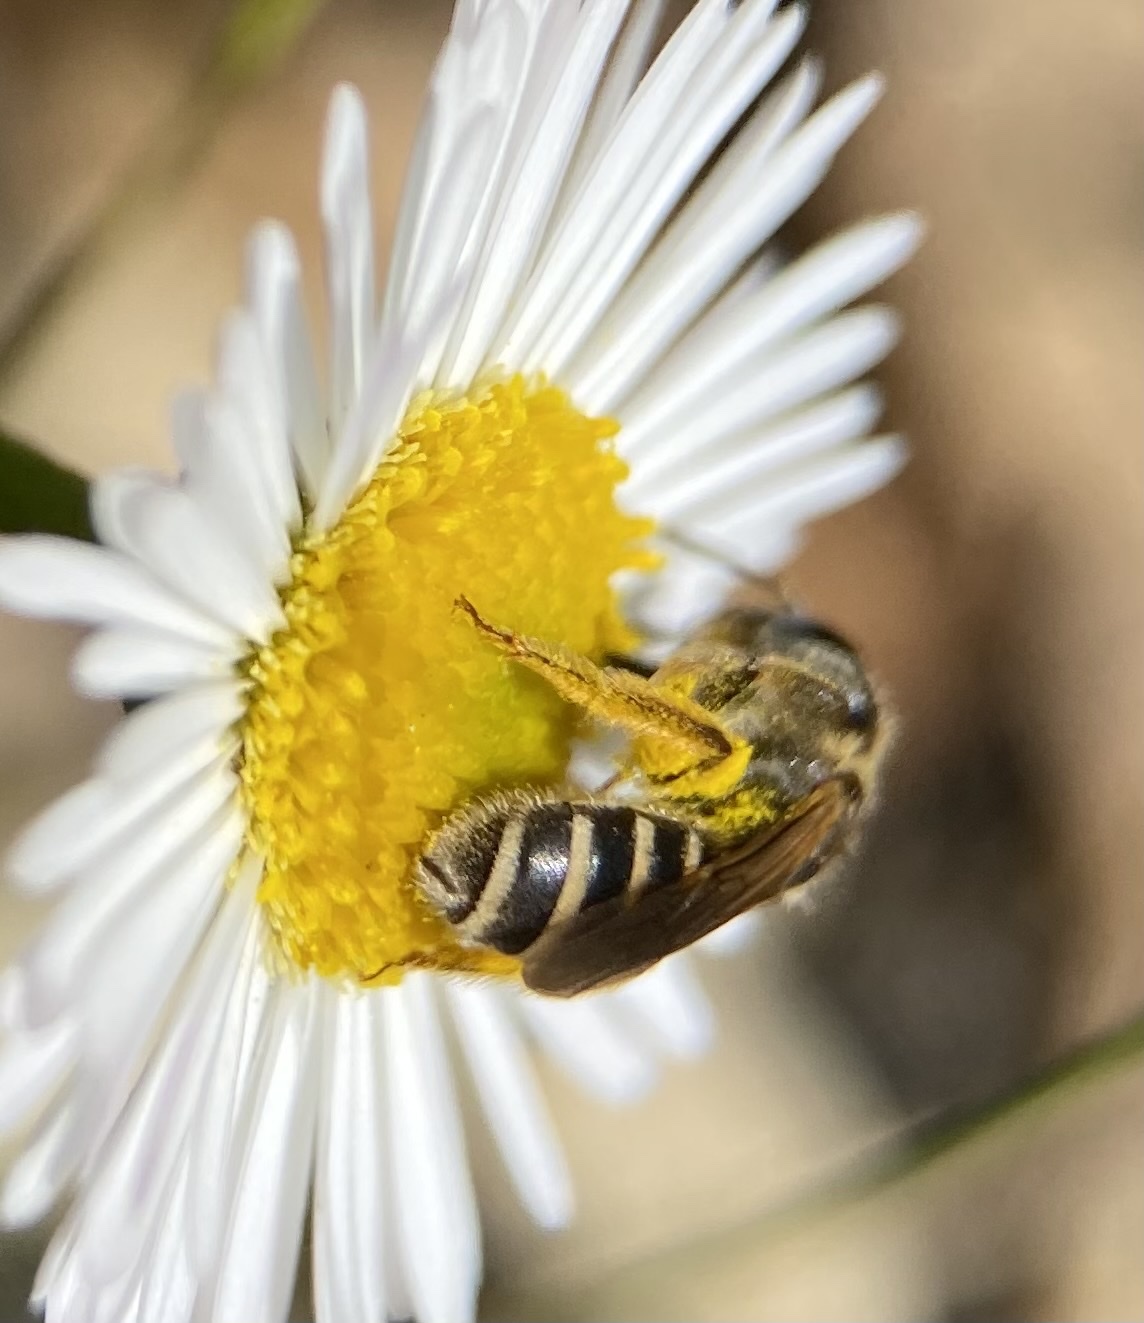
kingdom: Animalia
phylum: Arthropoda
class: Insecta
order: Hymenoptera
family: Halictidae
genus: Halictus
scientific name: Halictus ligatus
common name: Ligated furrow bee
